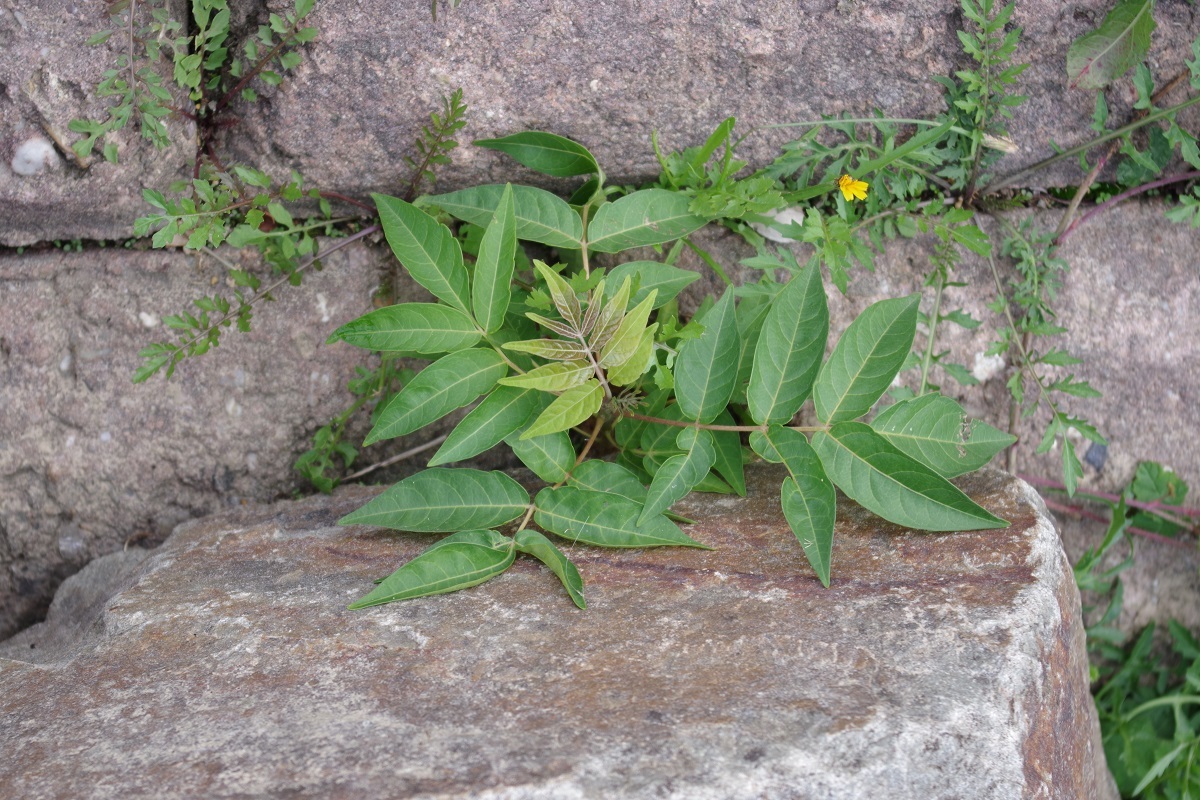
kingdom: Plantae
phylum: Tracheophyta
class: Magnoliopsida
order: Sapindales
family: Simaroubaceae
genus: Ailanthus
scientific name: Ailanthus altissima
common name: Tree-of-heaven
